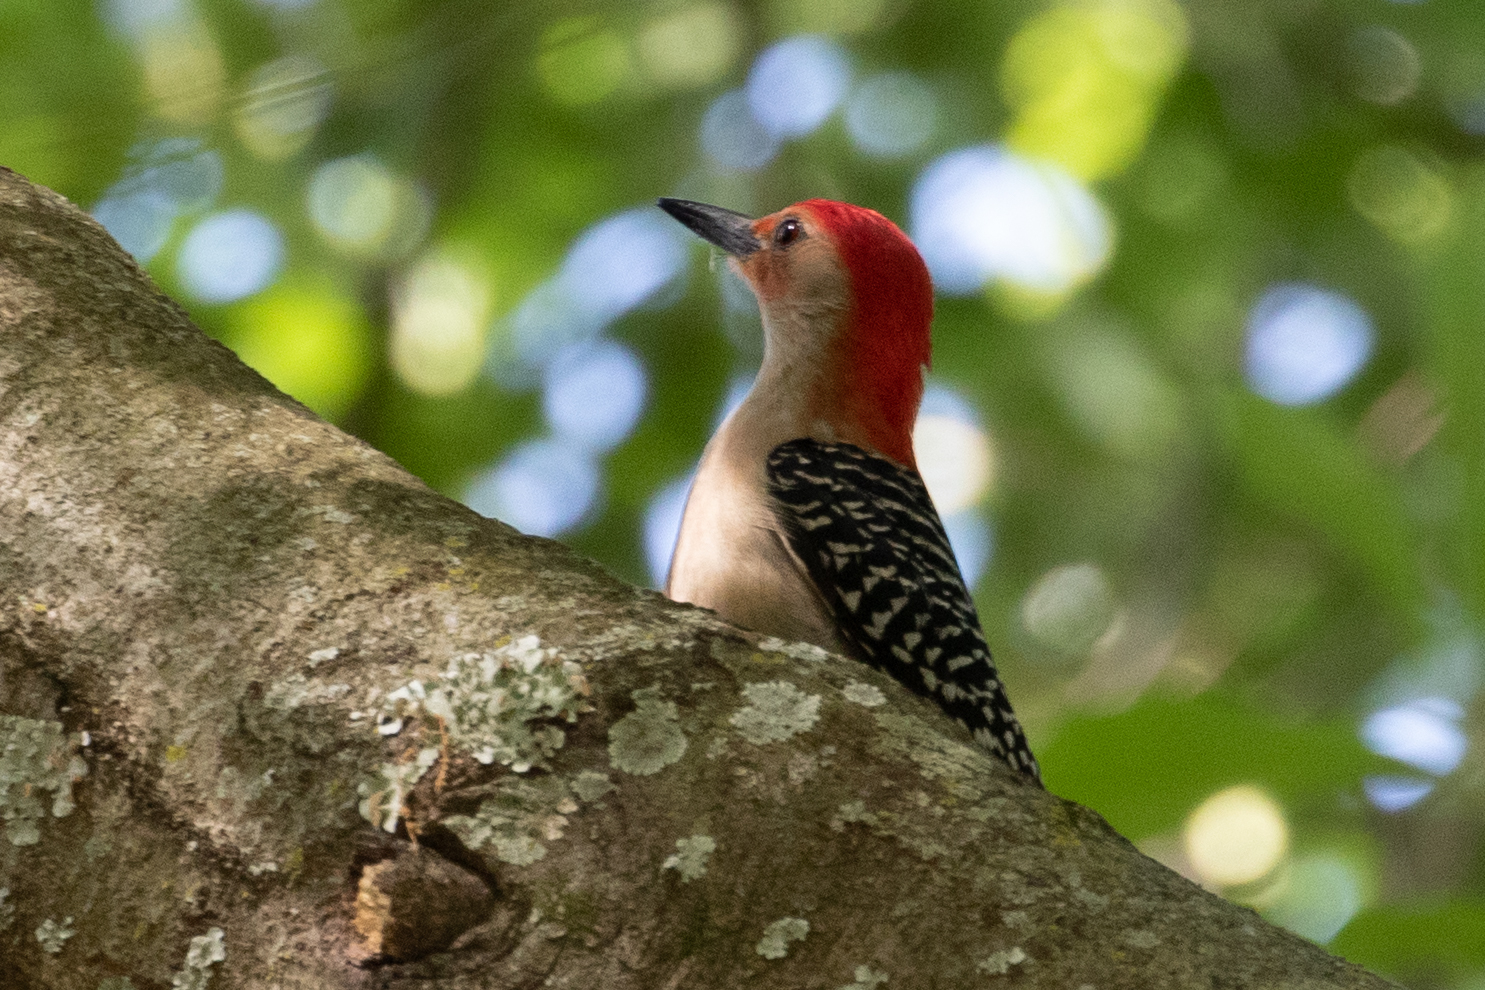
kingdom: Animalia
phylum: Chordata
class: Aves
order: Piciformes
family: Picidae
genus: Melanerpes
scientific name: Melanerpes carolinus
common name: Red-bellied woodpecker
